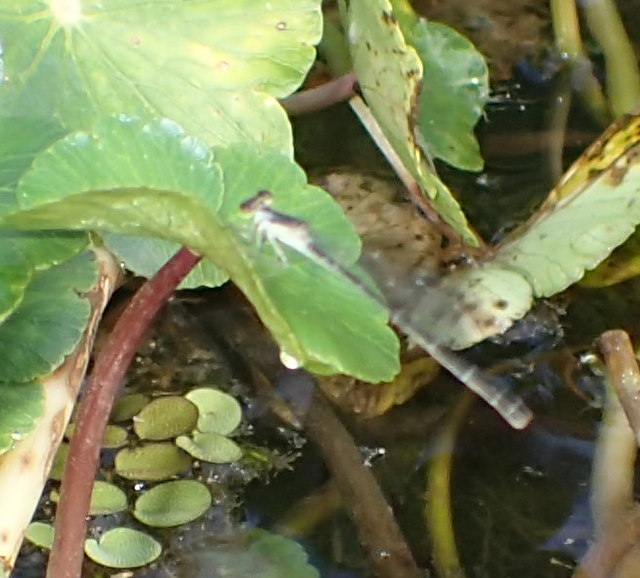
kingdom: Animalia
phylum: Arthropoda
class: Insecta
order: Odonata
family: Coenagrionidae
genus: Ischnura
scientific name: Ischnura posita
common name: Fragile forktail
